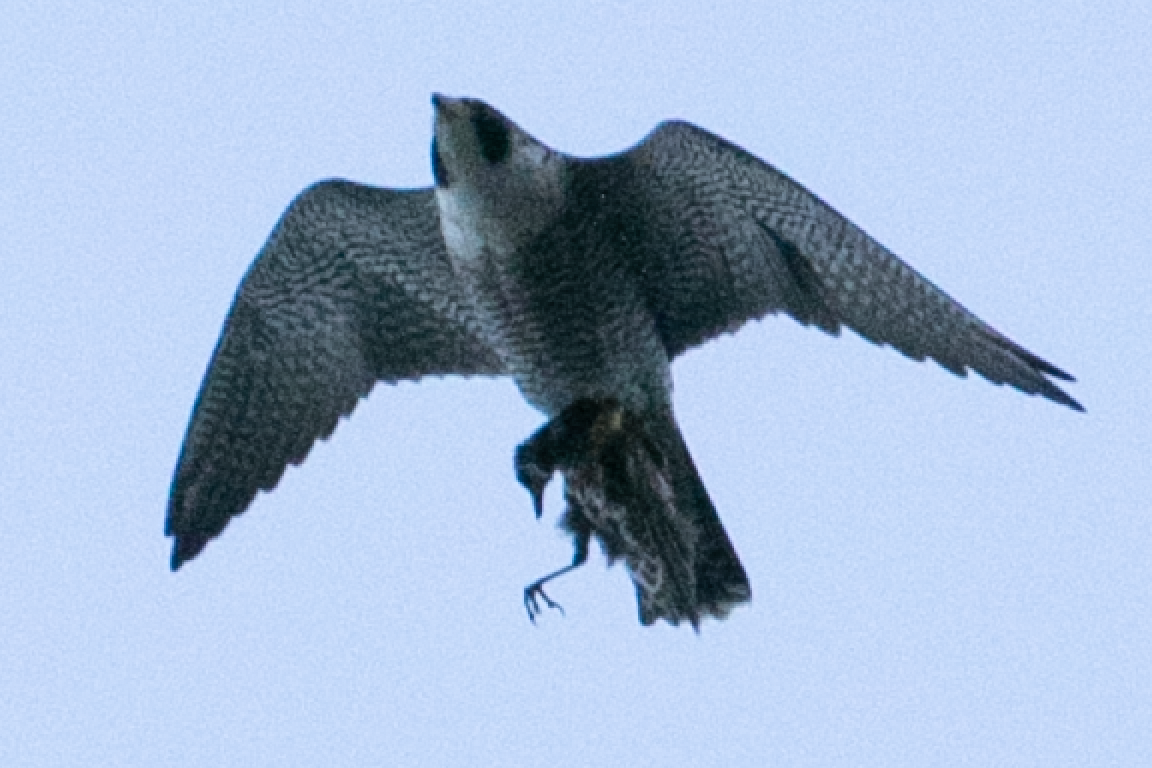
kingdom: Animalia
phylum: Chordata
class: Aves
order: Falconiformes
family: Falconidae
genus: Falco
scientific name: Falco peregrinus
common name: Peregrine falcon
